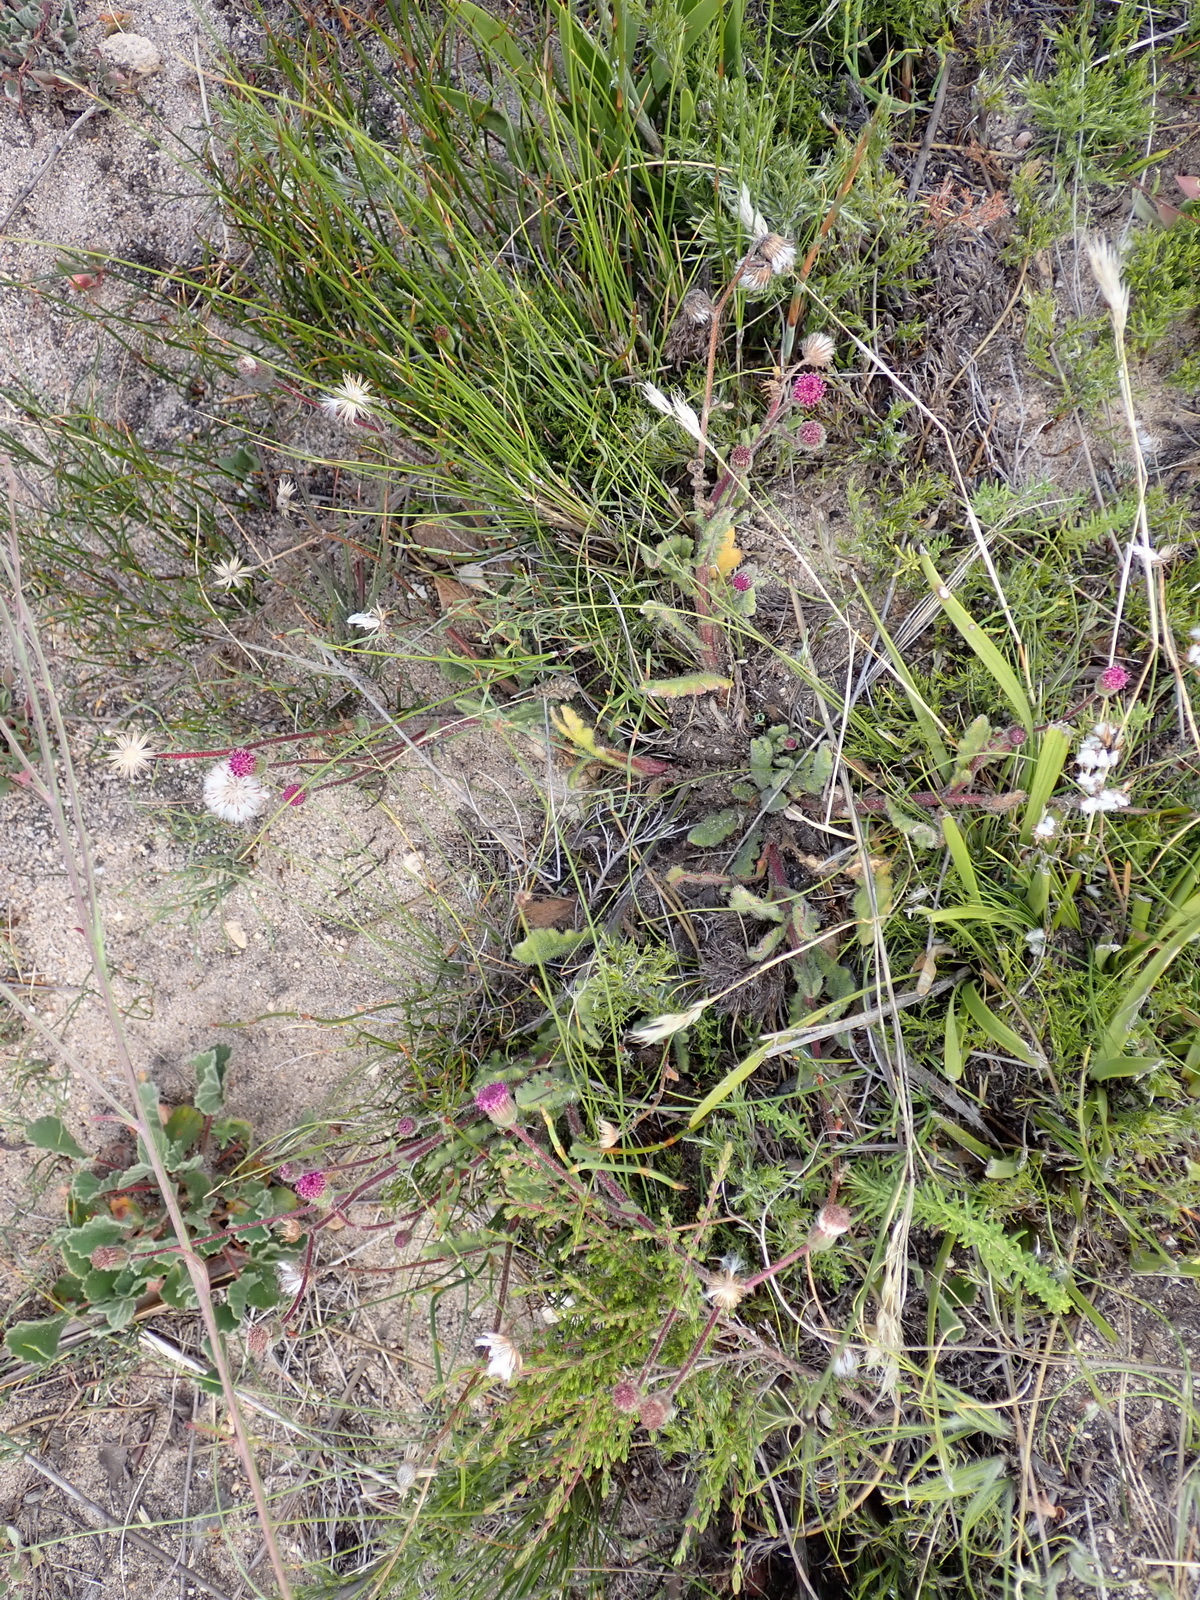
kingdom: Plantae
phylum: Tracheophyta
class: Magnoliopsida
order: Asterales
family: Asteraceae
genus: Senecio
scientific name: Senecio erubescens
